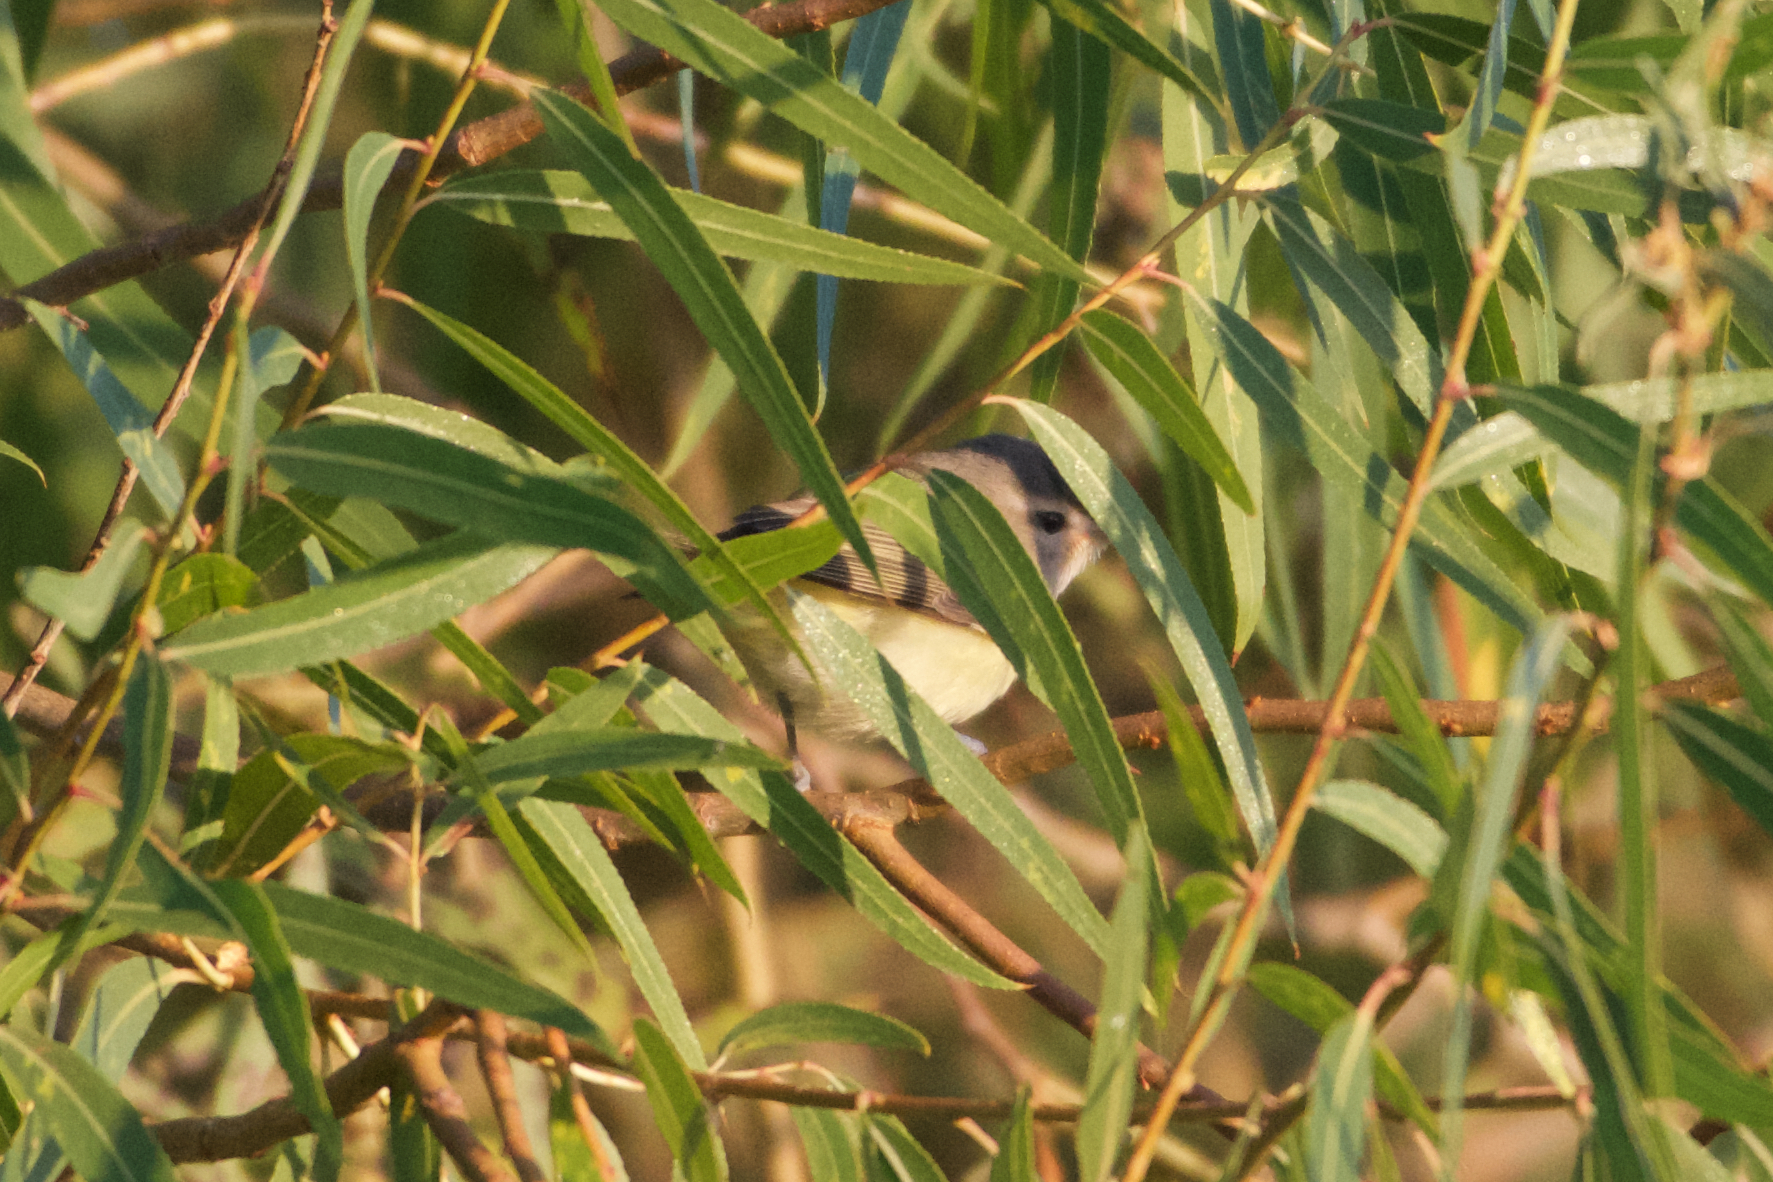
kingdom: Animalia
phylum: Chordata
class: Aves
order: Passeriformes
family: Vireonidae
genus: Vireo
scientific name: Vireo gilvus
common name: Warbling vireo
